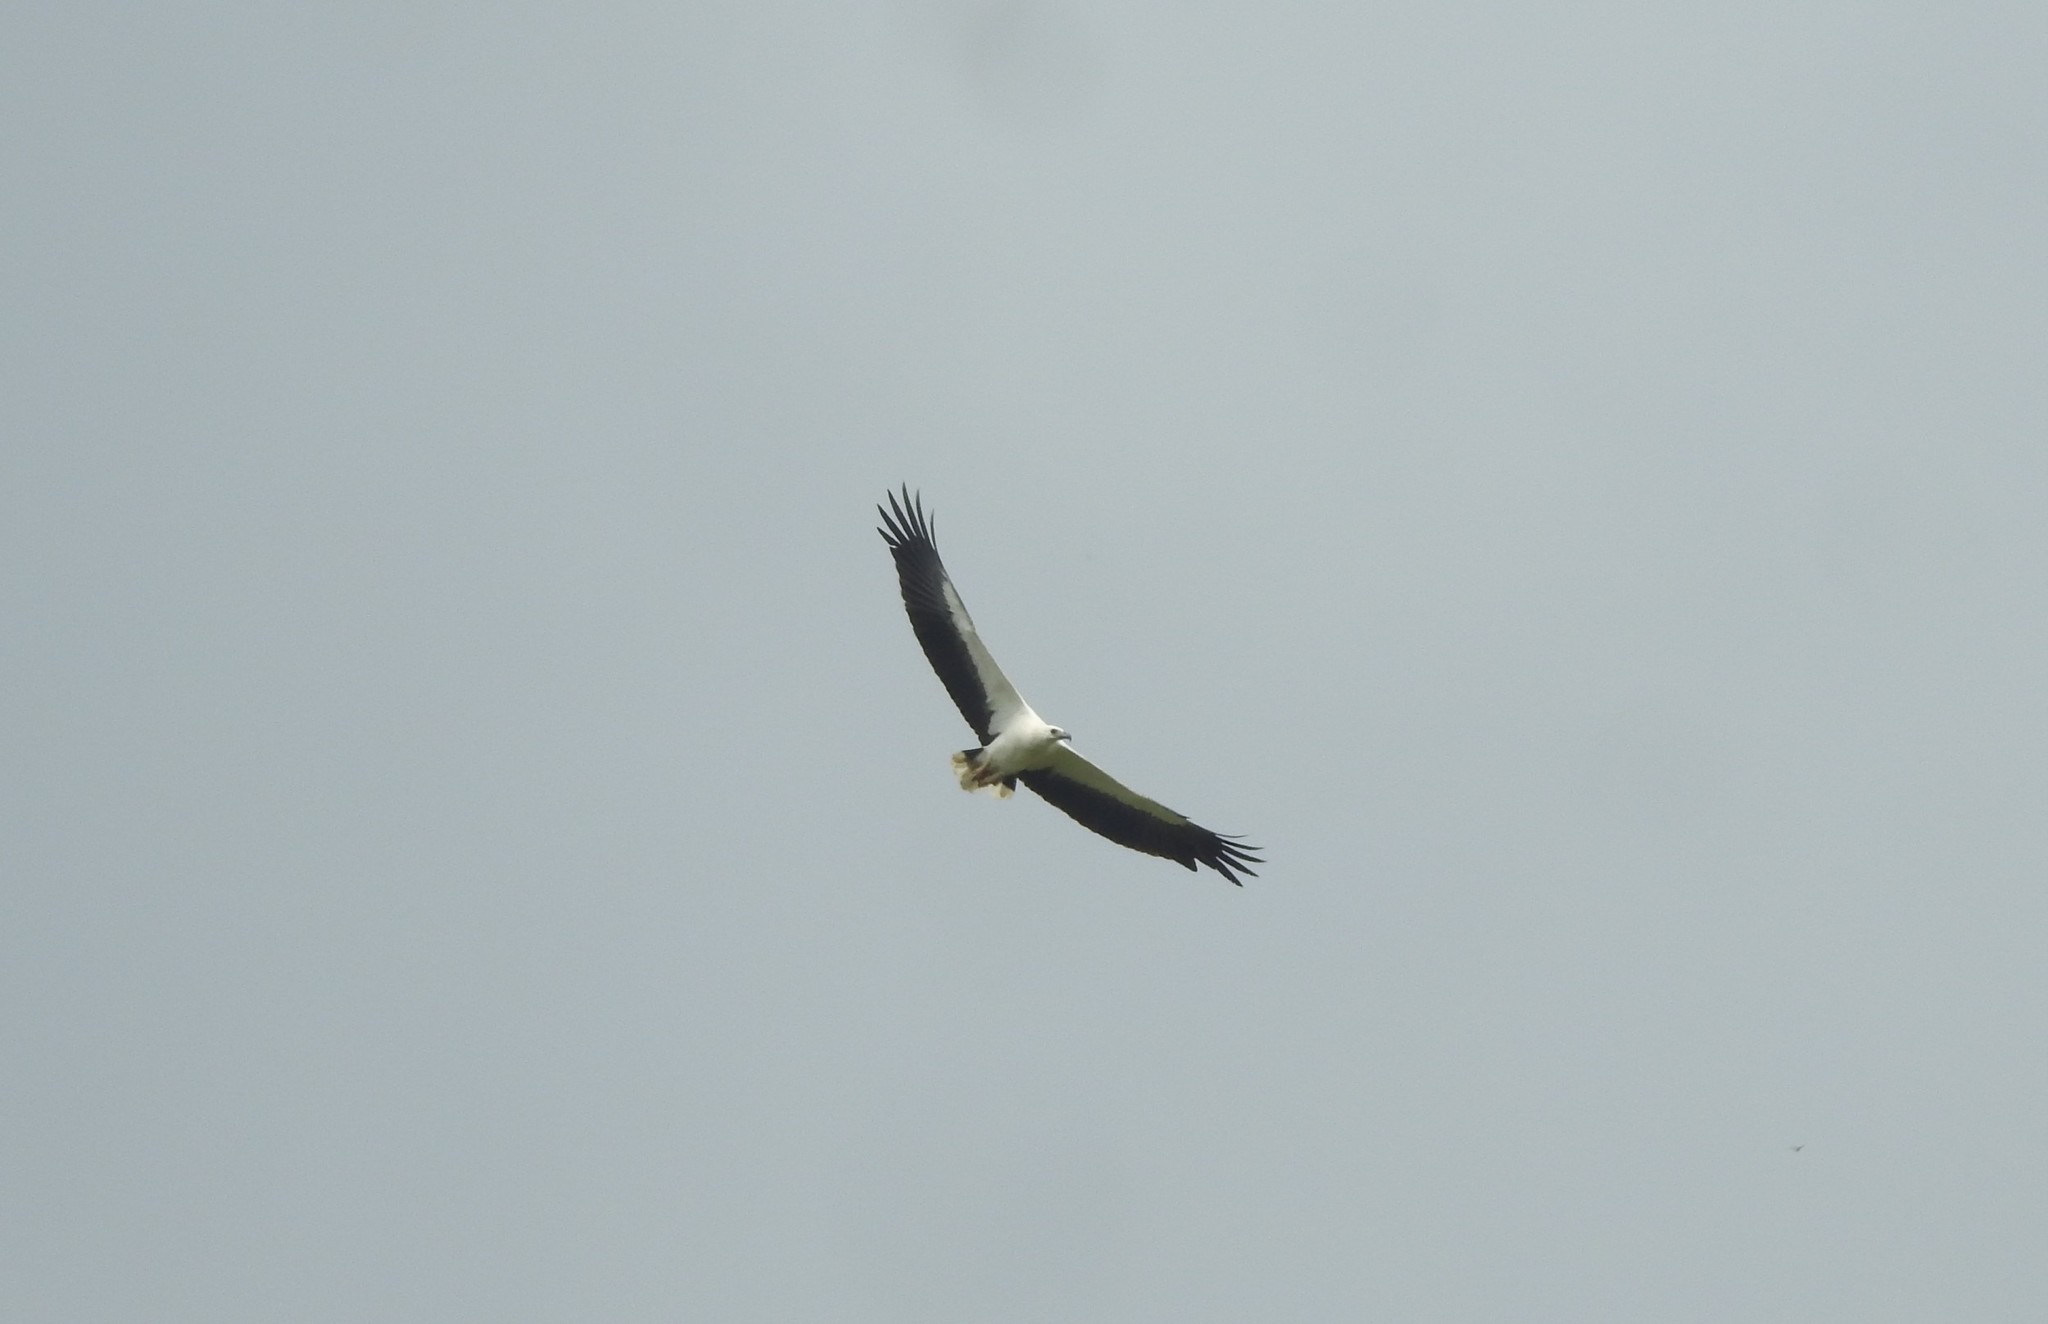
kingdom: Animalia
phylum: Chordata
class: Aves
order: Accipitriformes
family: Accipitridae
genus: Haliaeetus
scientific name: Haliaeetus leucogaster
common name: White-bellied sea eagle
